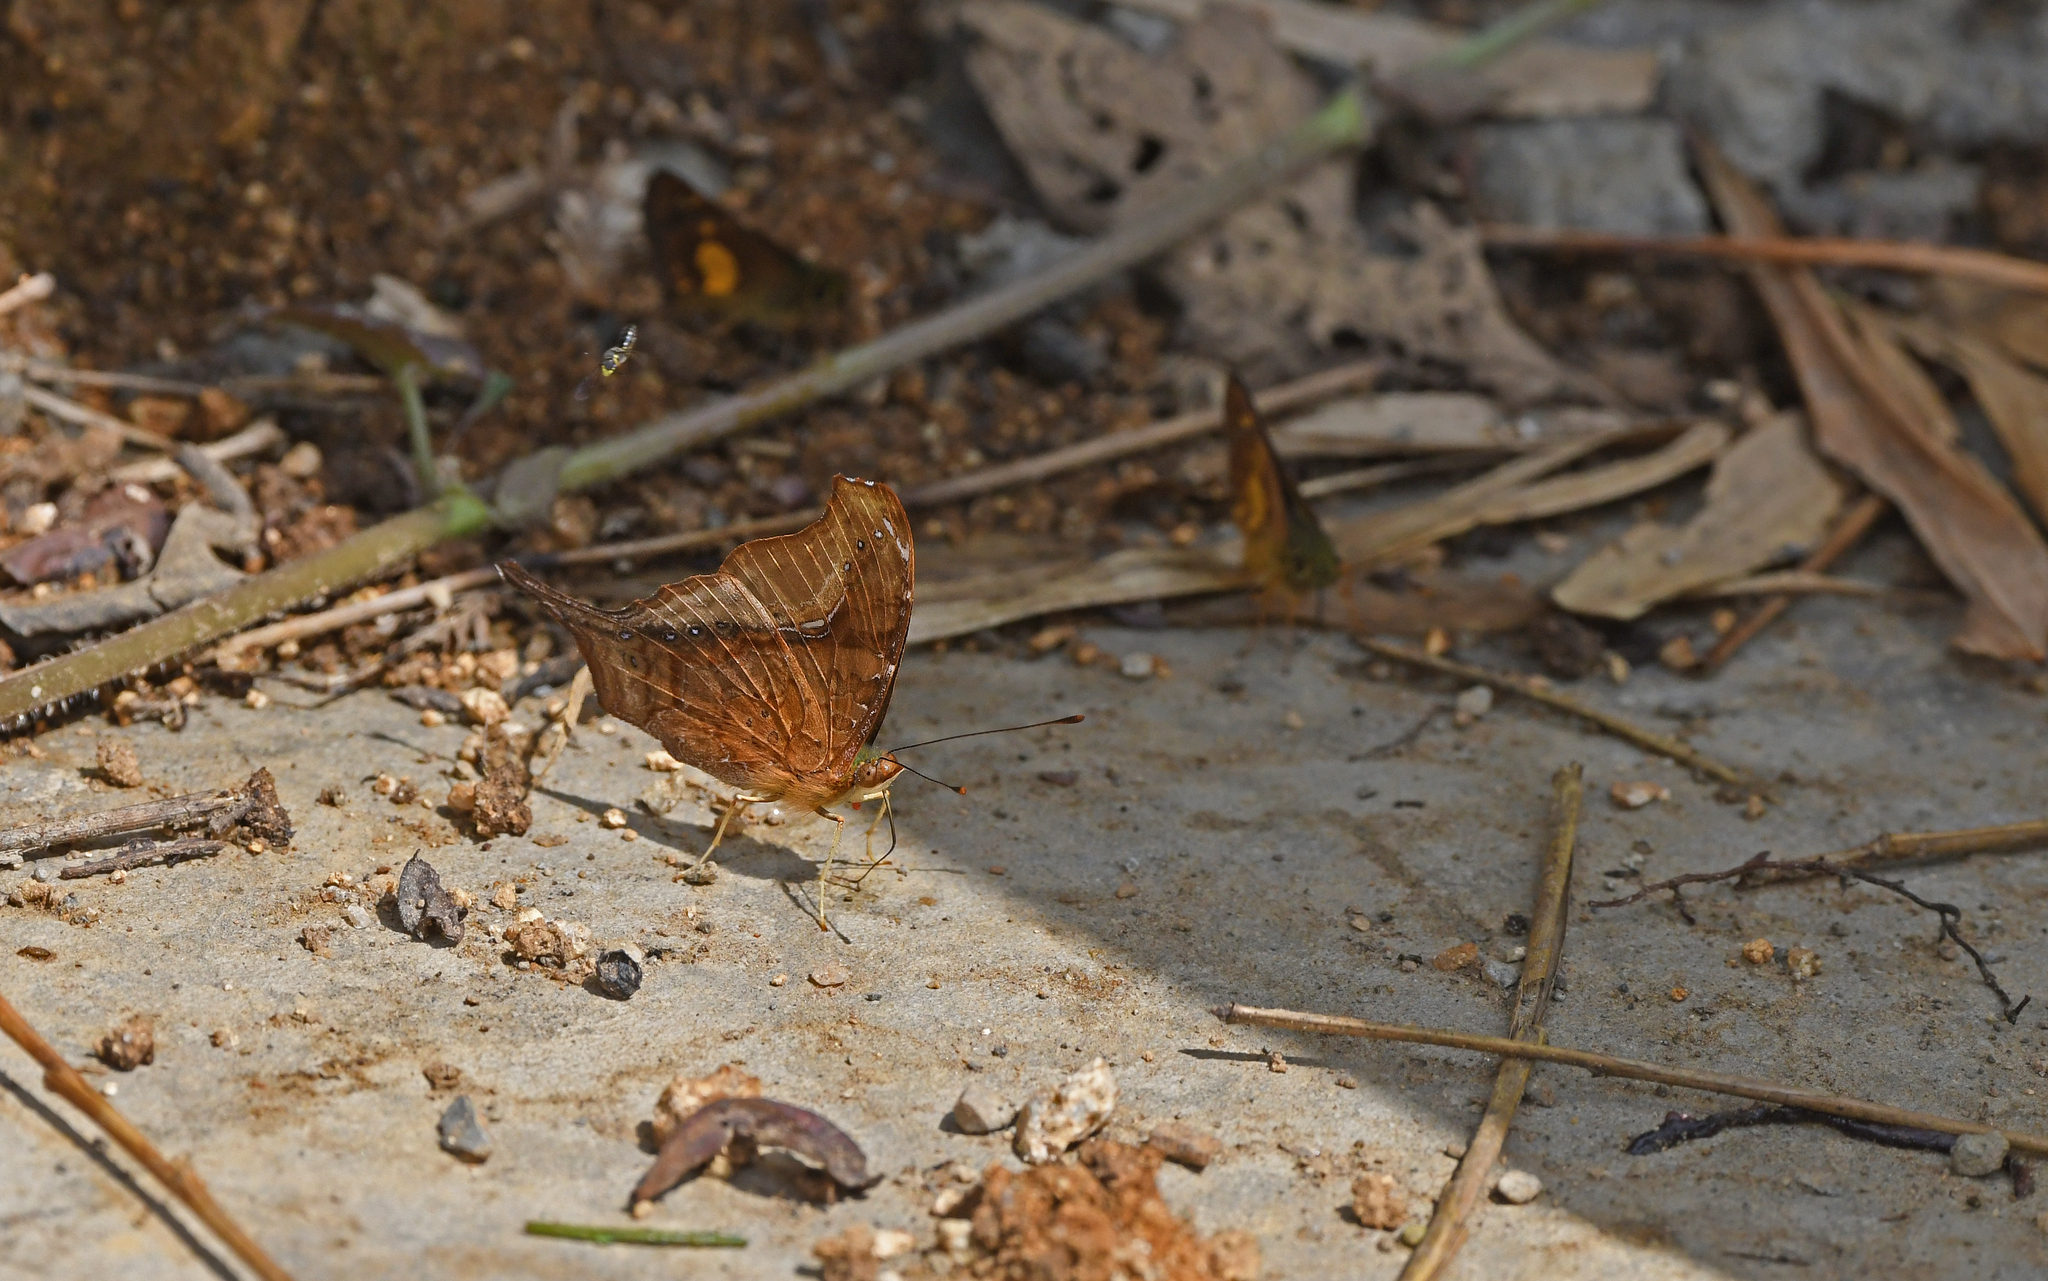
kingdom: Animalia
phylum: Arthropoda
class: Insecta
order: Lepidoptera
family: Nymphalidae
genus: Hypanartia
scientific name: Hypanartia dione
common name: Banded mapwing
